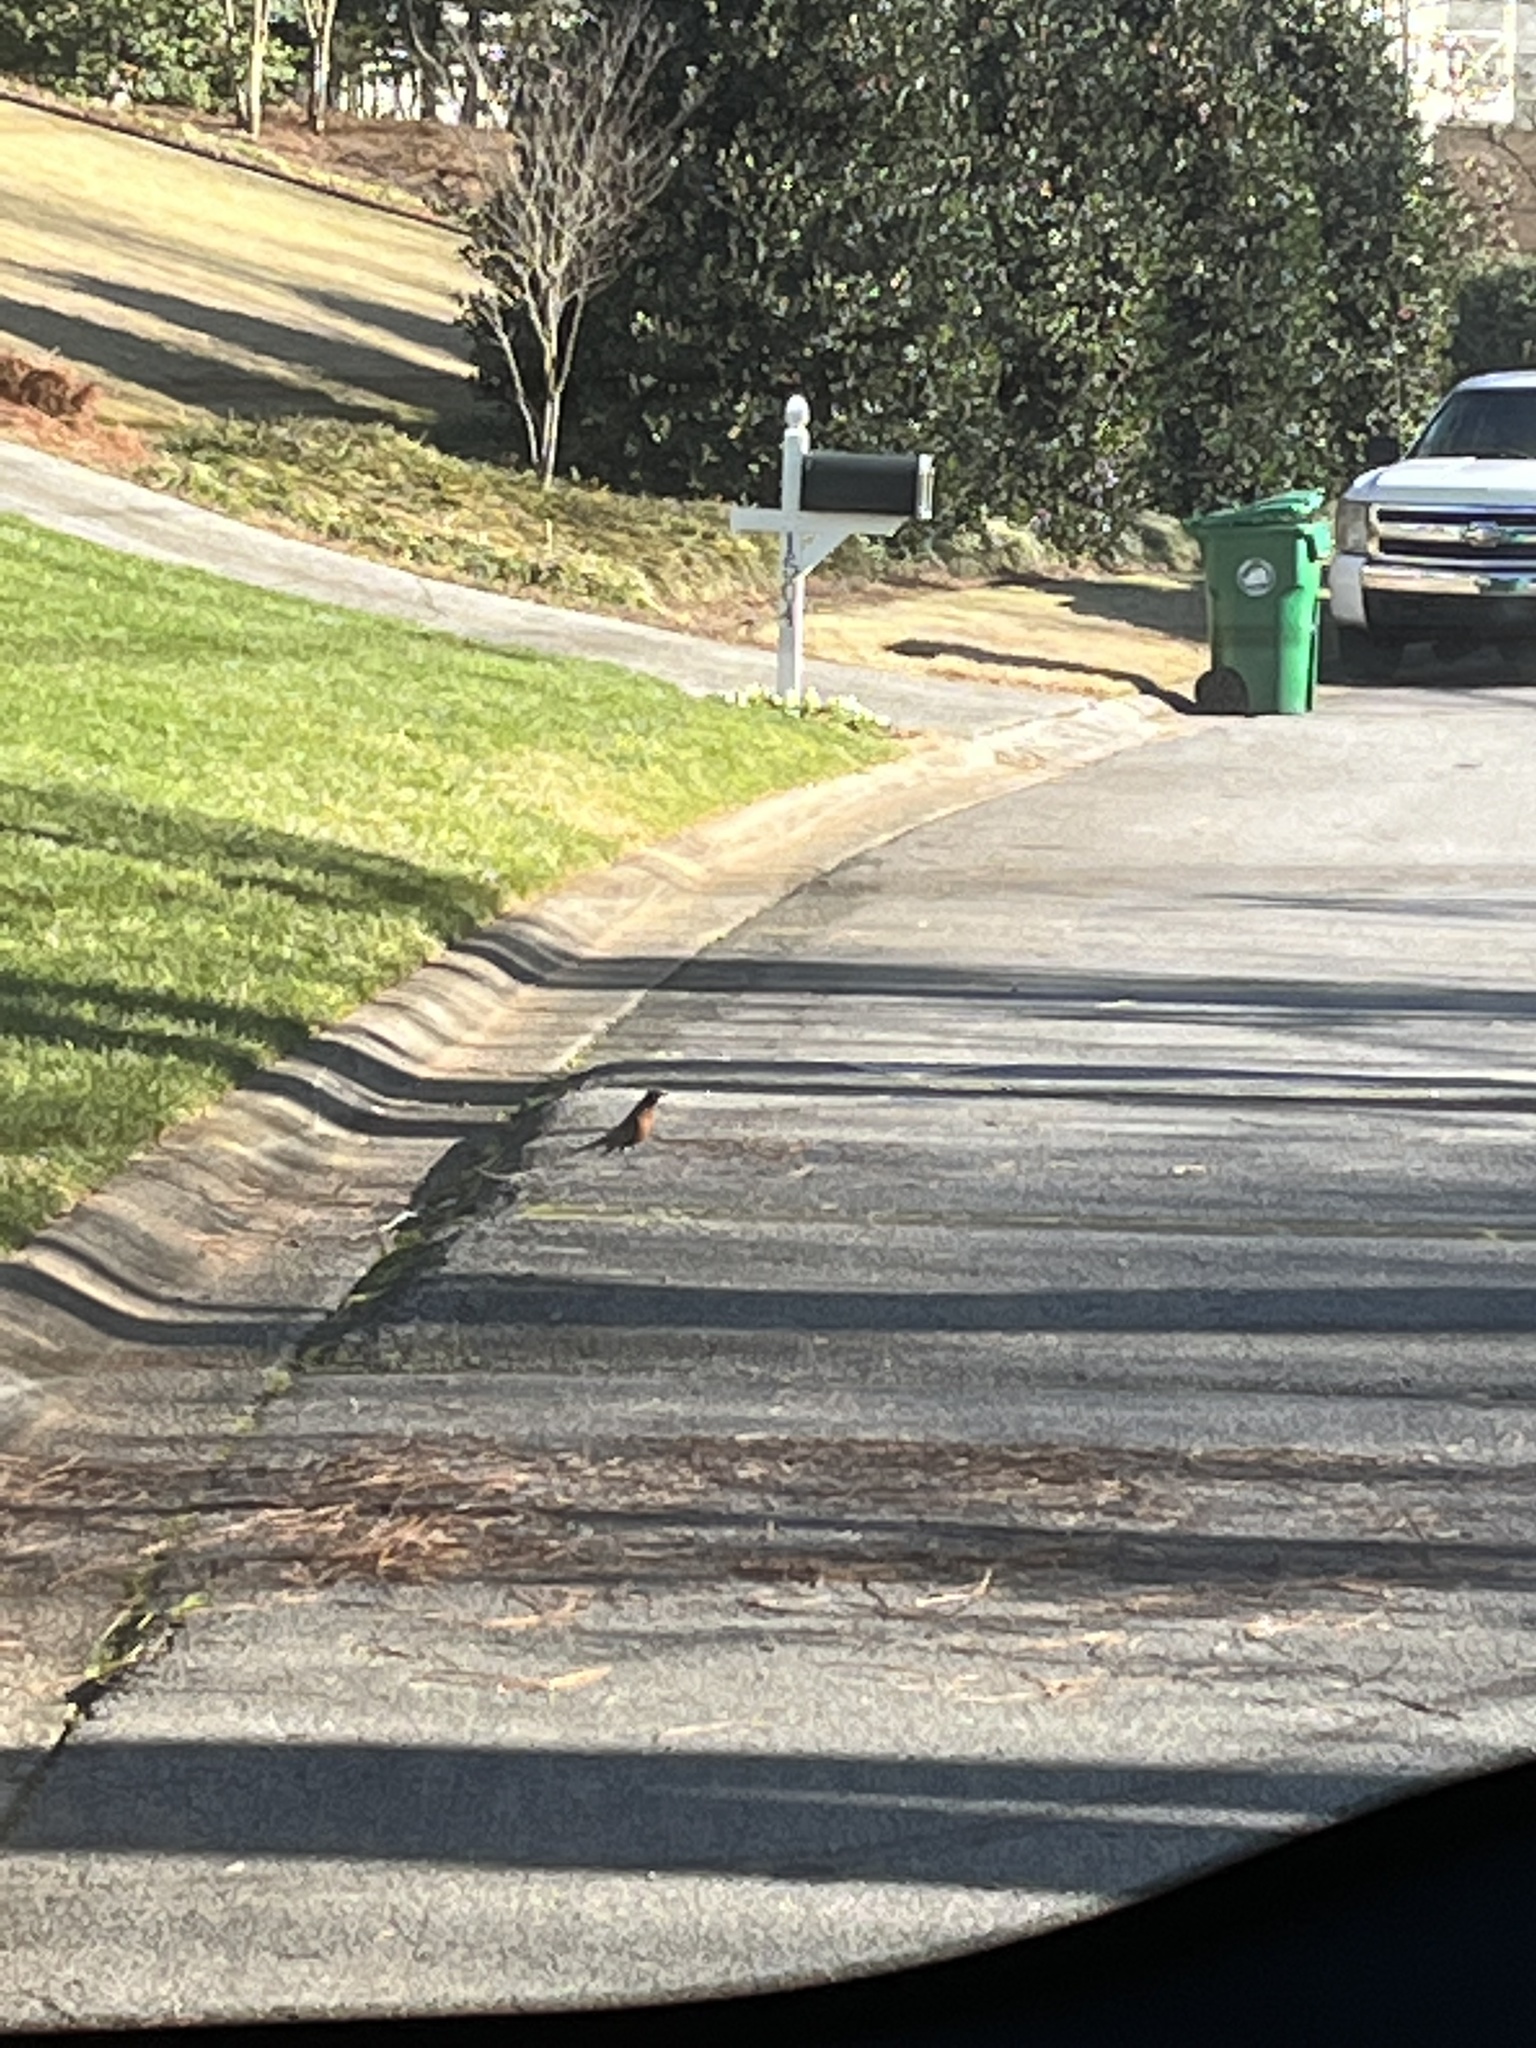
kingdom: Animalia
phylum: Chordata
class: Aves
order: Passeriformes
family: Turdidae
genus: Turdus
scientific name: Turdus migratorius
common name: American robin
